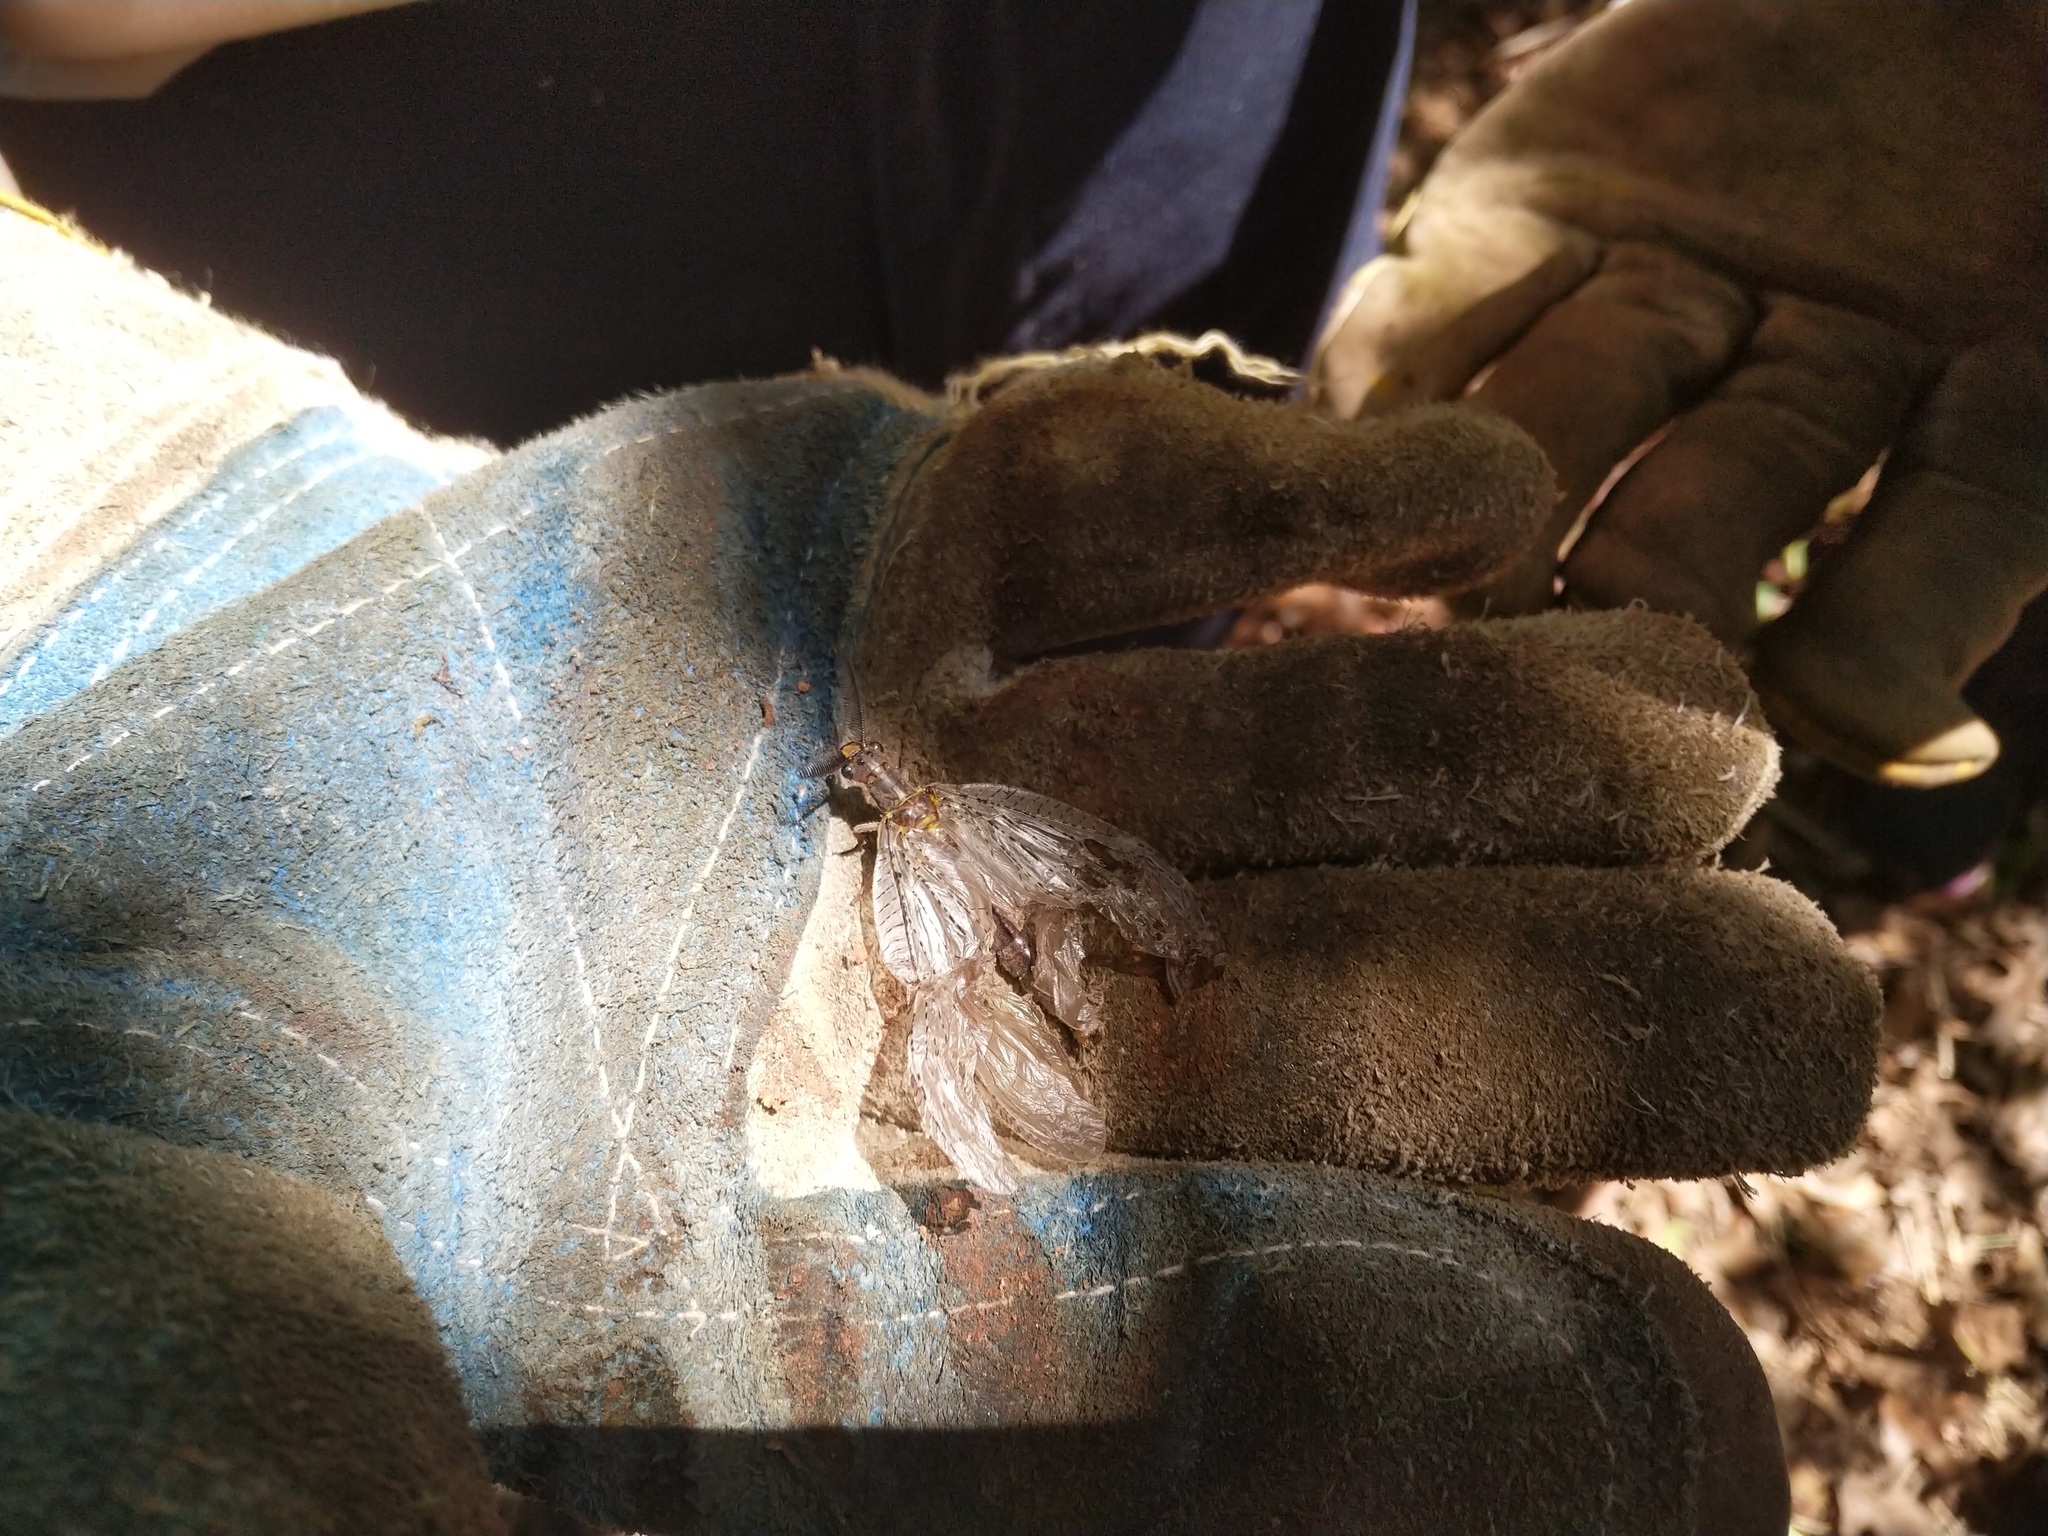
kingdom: Animalia
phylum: Arthropoda
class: Insecta
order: Megaloptera
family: Corydalidae
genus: Chauliodes
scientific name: Chauliodes pectinicornis
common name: Summer fishfly
